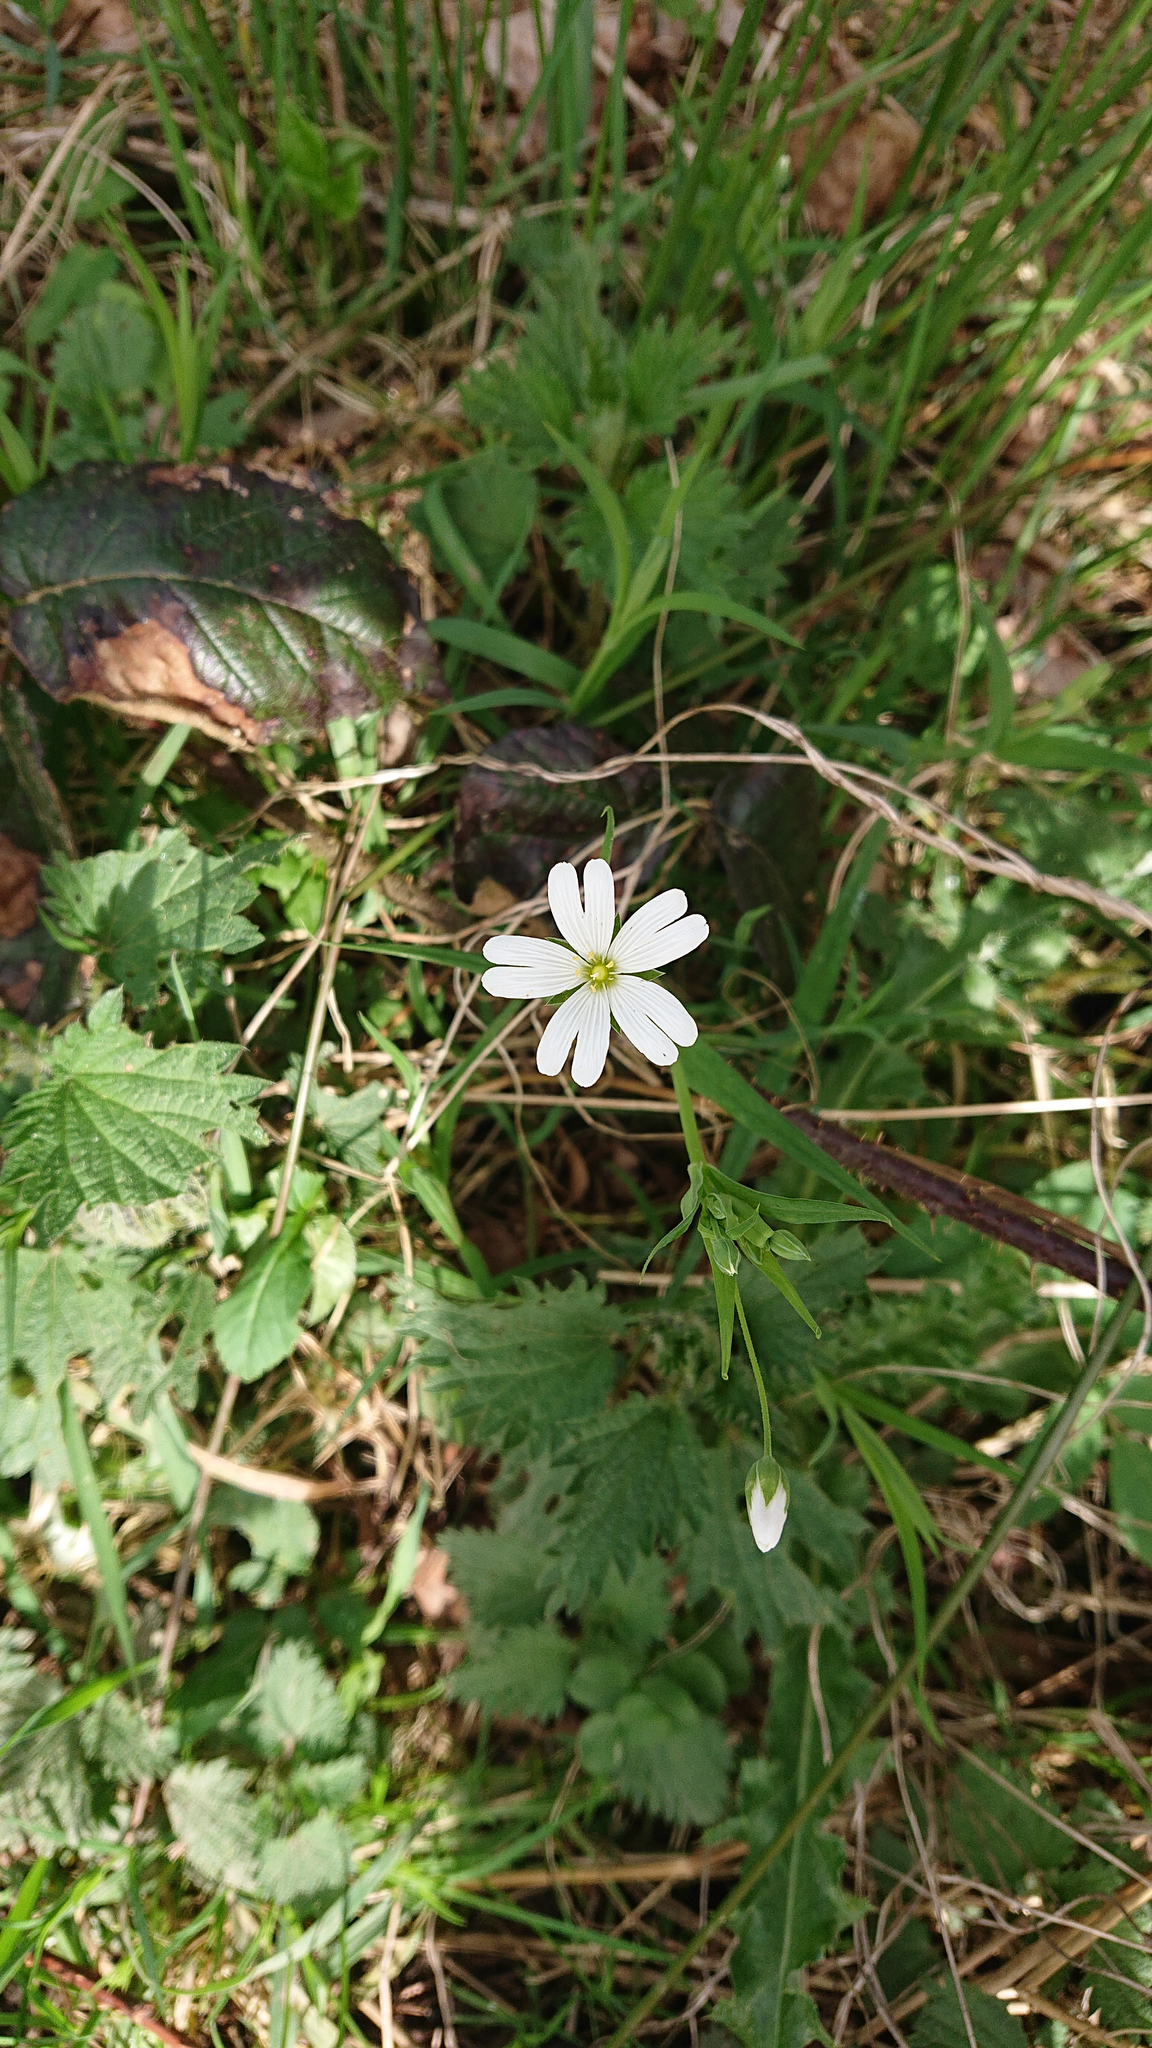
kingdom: Plantae
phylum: Tracheophyta
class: Magnoliopsida
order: Caryophyllales
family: Caryophyllaceae
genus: Rabelera
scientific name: Rabelera holostea
